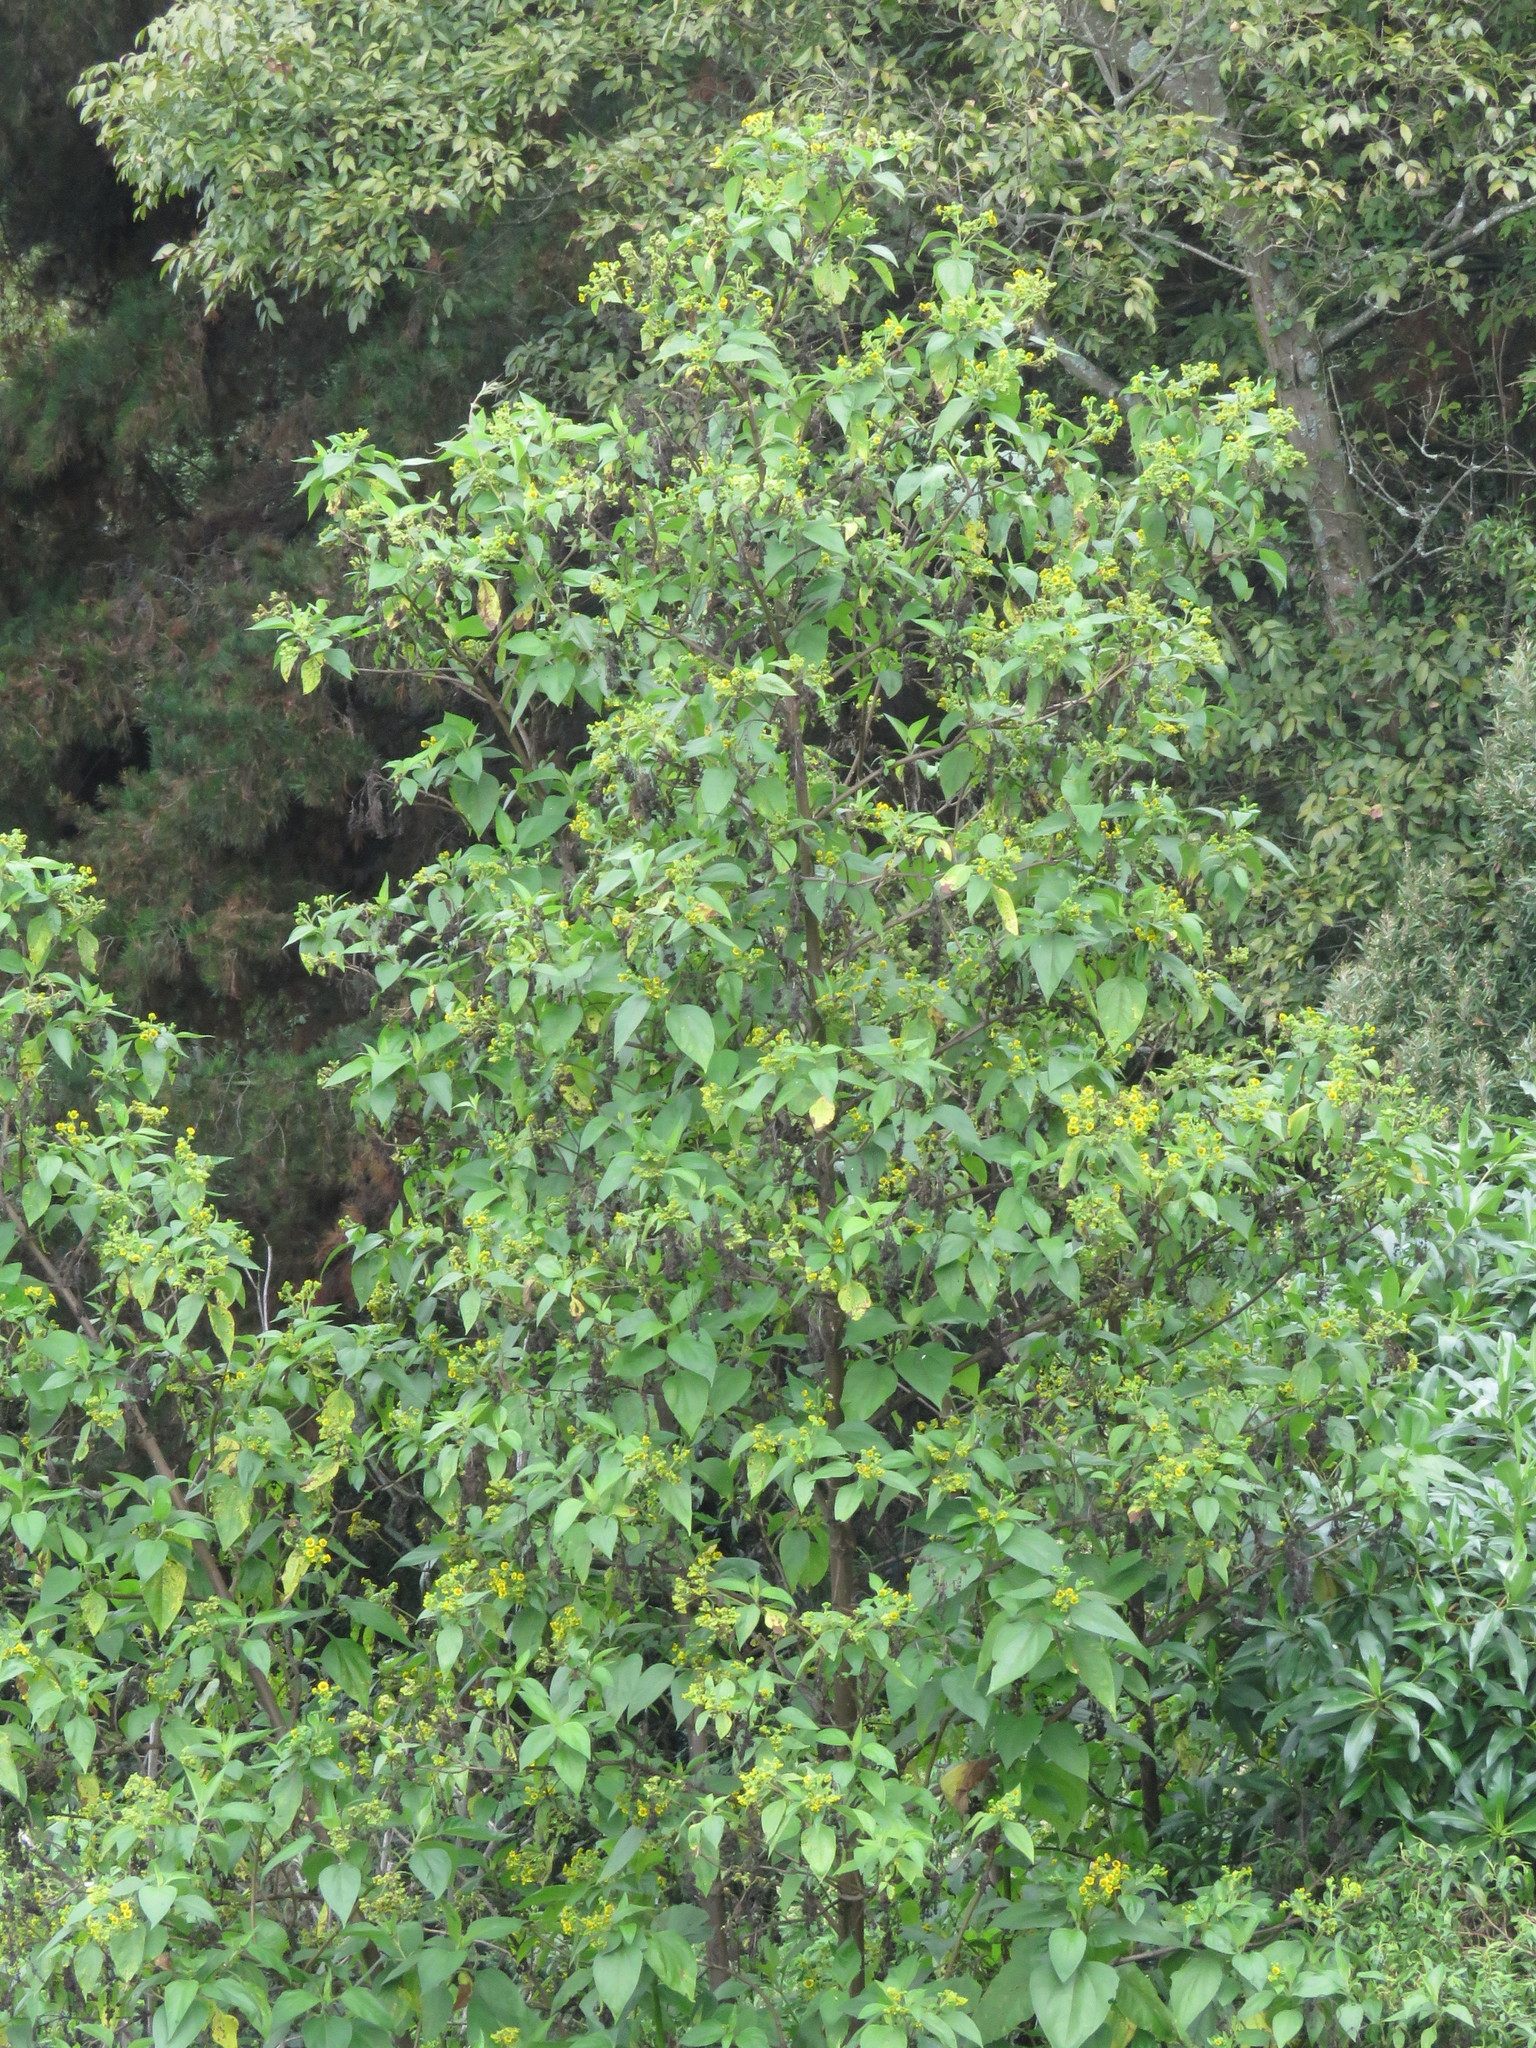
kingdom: Plantae
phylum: Tracheophyta
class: Magnoliopsida
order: Asterales
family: Asteraceae
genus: Smallanthus
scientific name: Smallanthus pyramidalis
